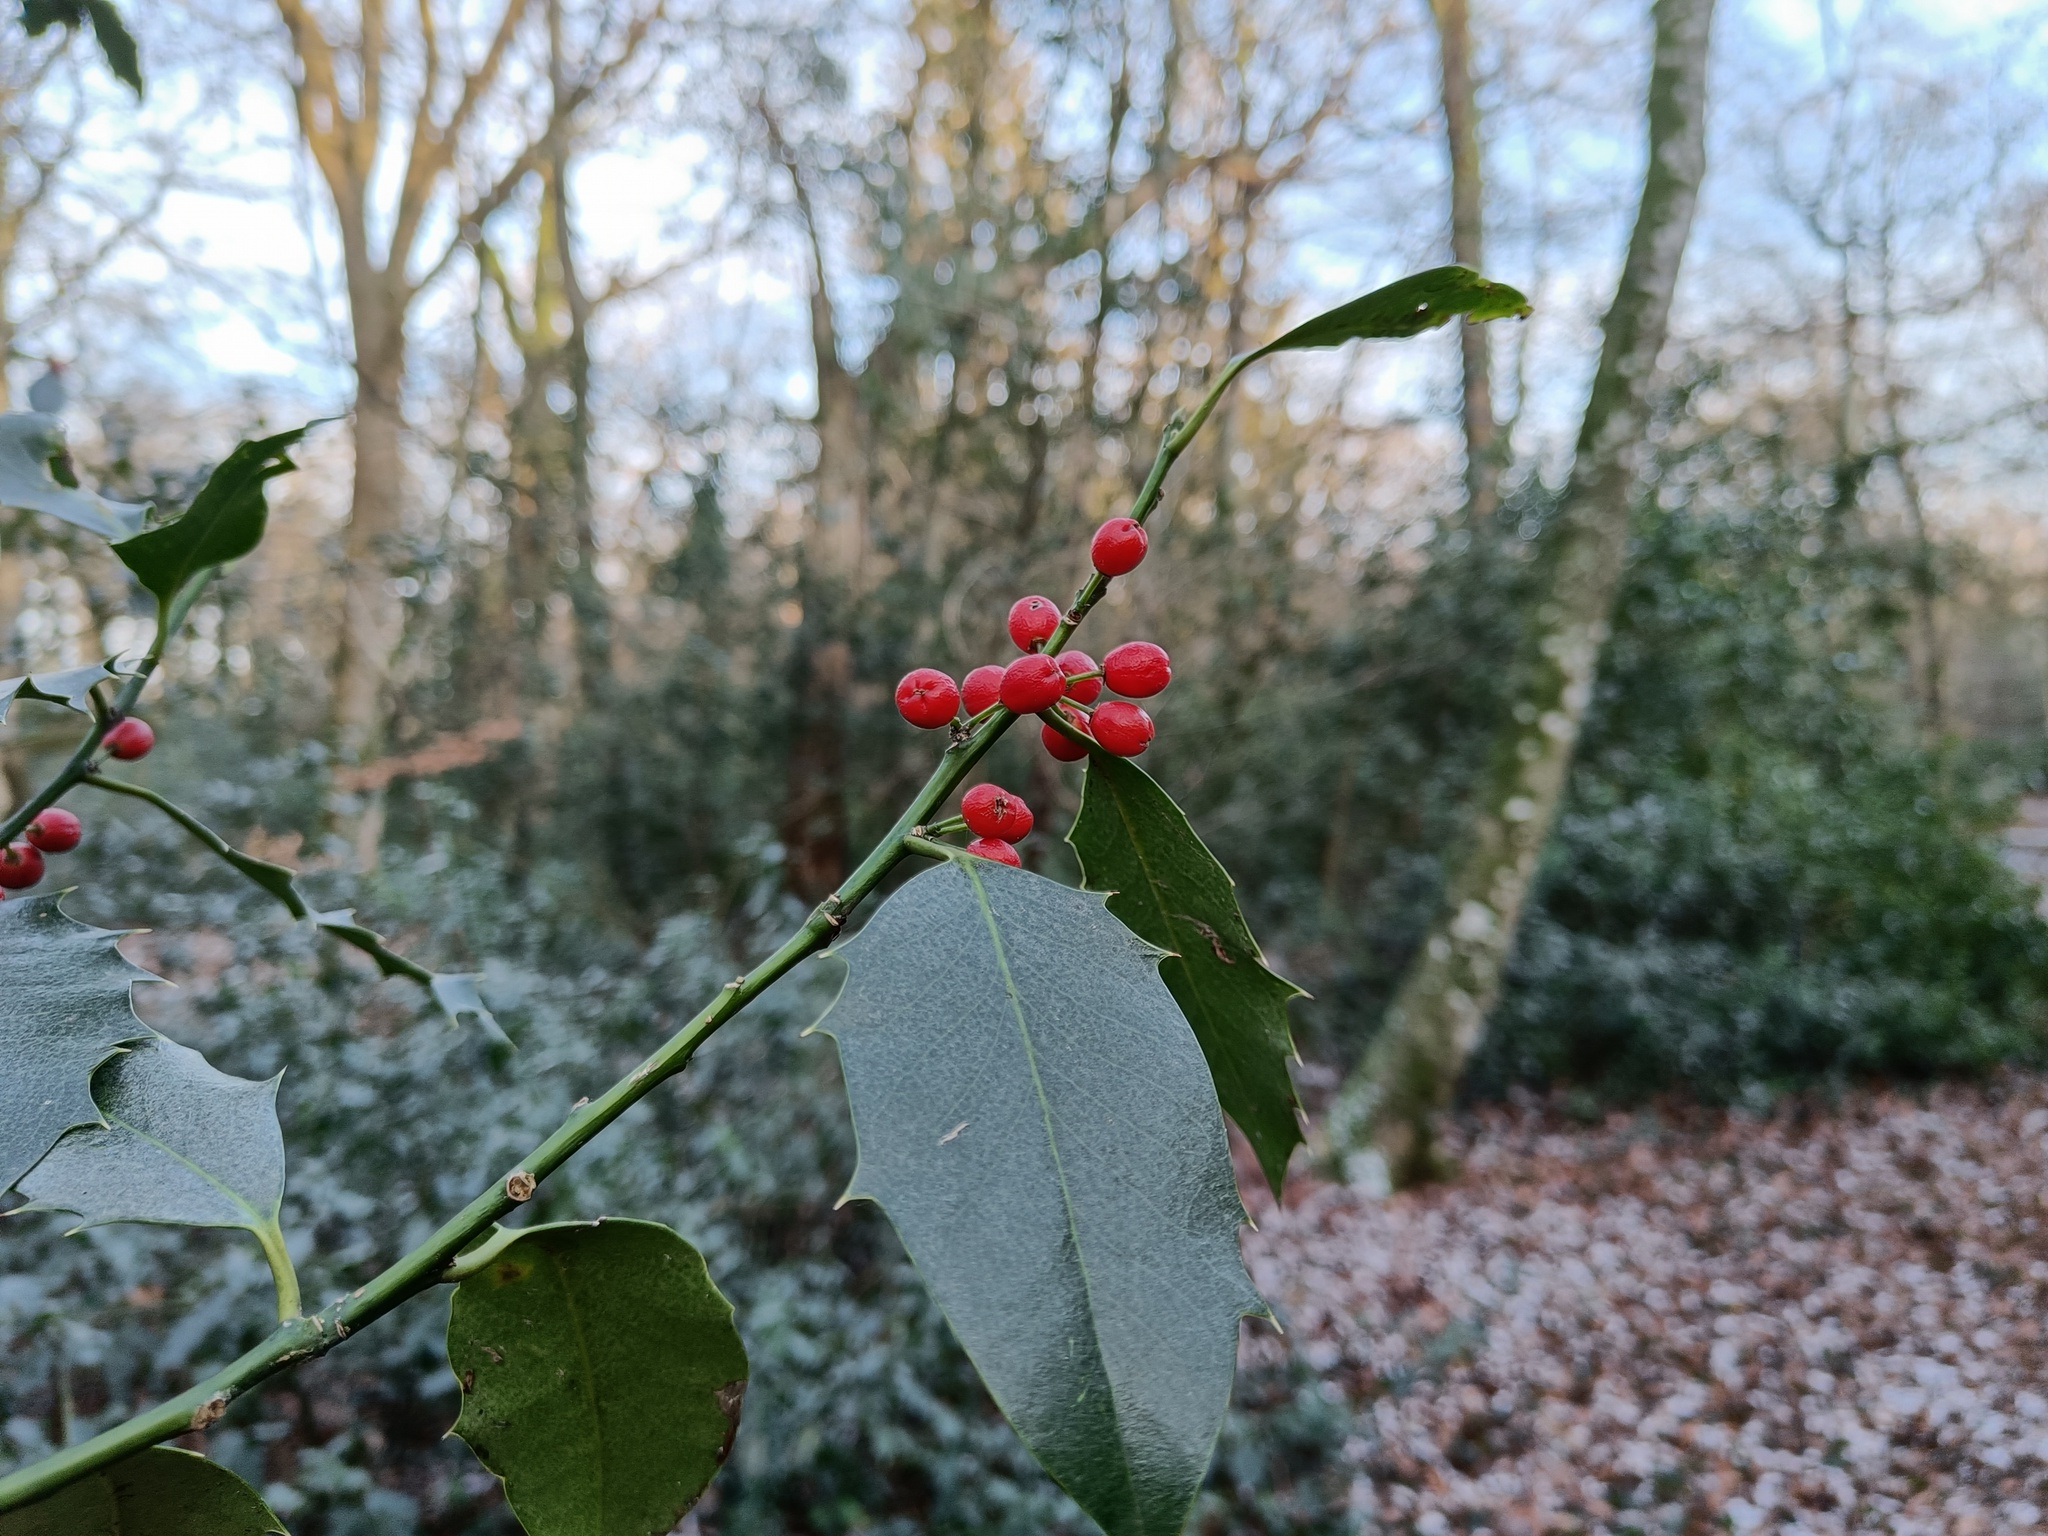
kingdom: Plantae
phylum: Tracheophyta
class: Magnoliopsida
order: Aquifoliales
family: Aquifoliaceae
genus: Ilex
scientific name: Ilex aquifolium
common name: English holly
